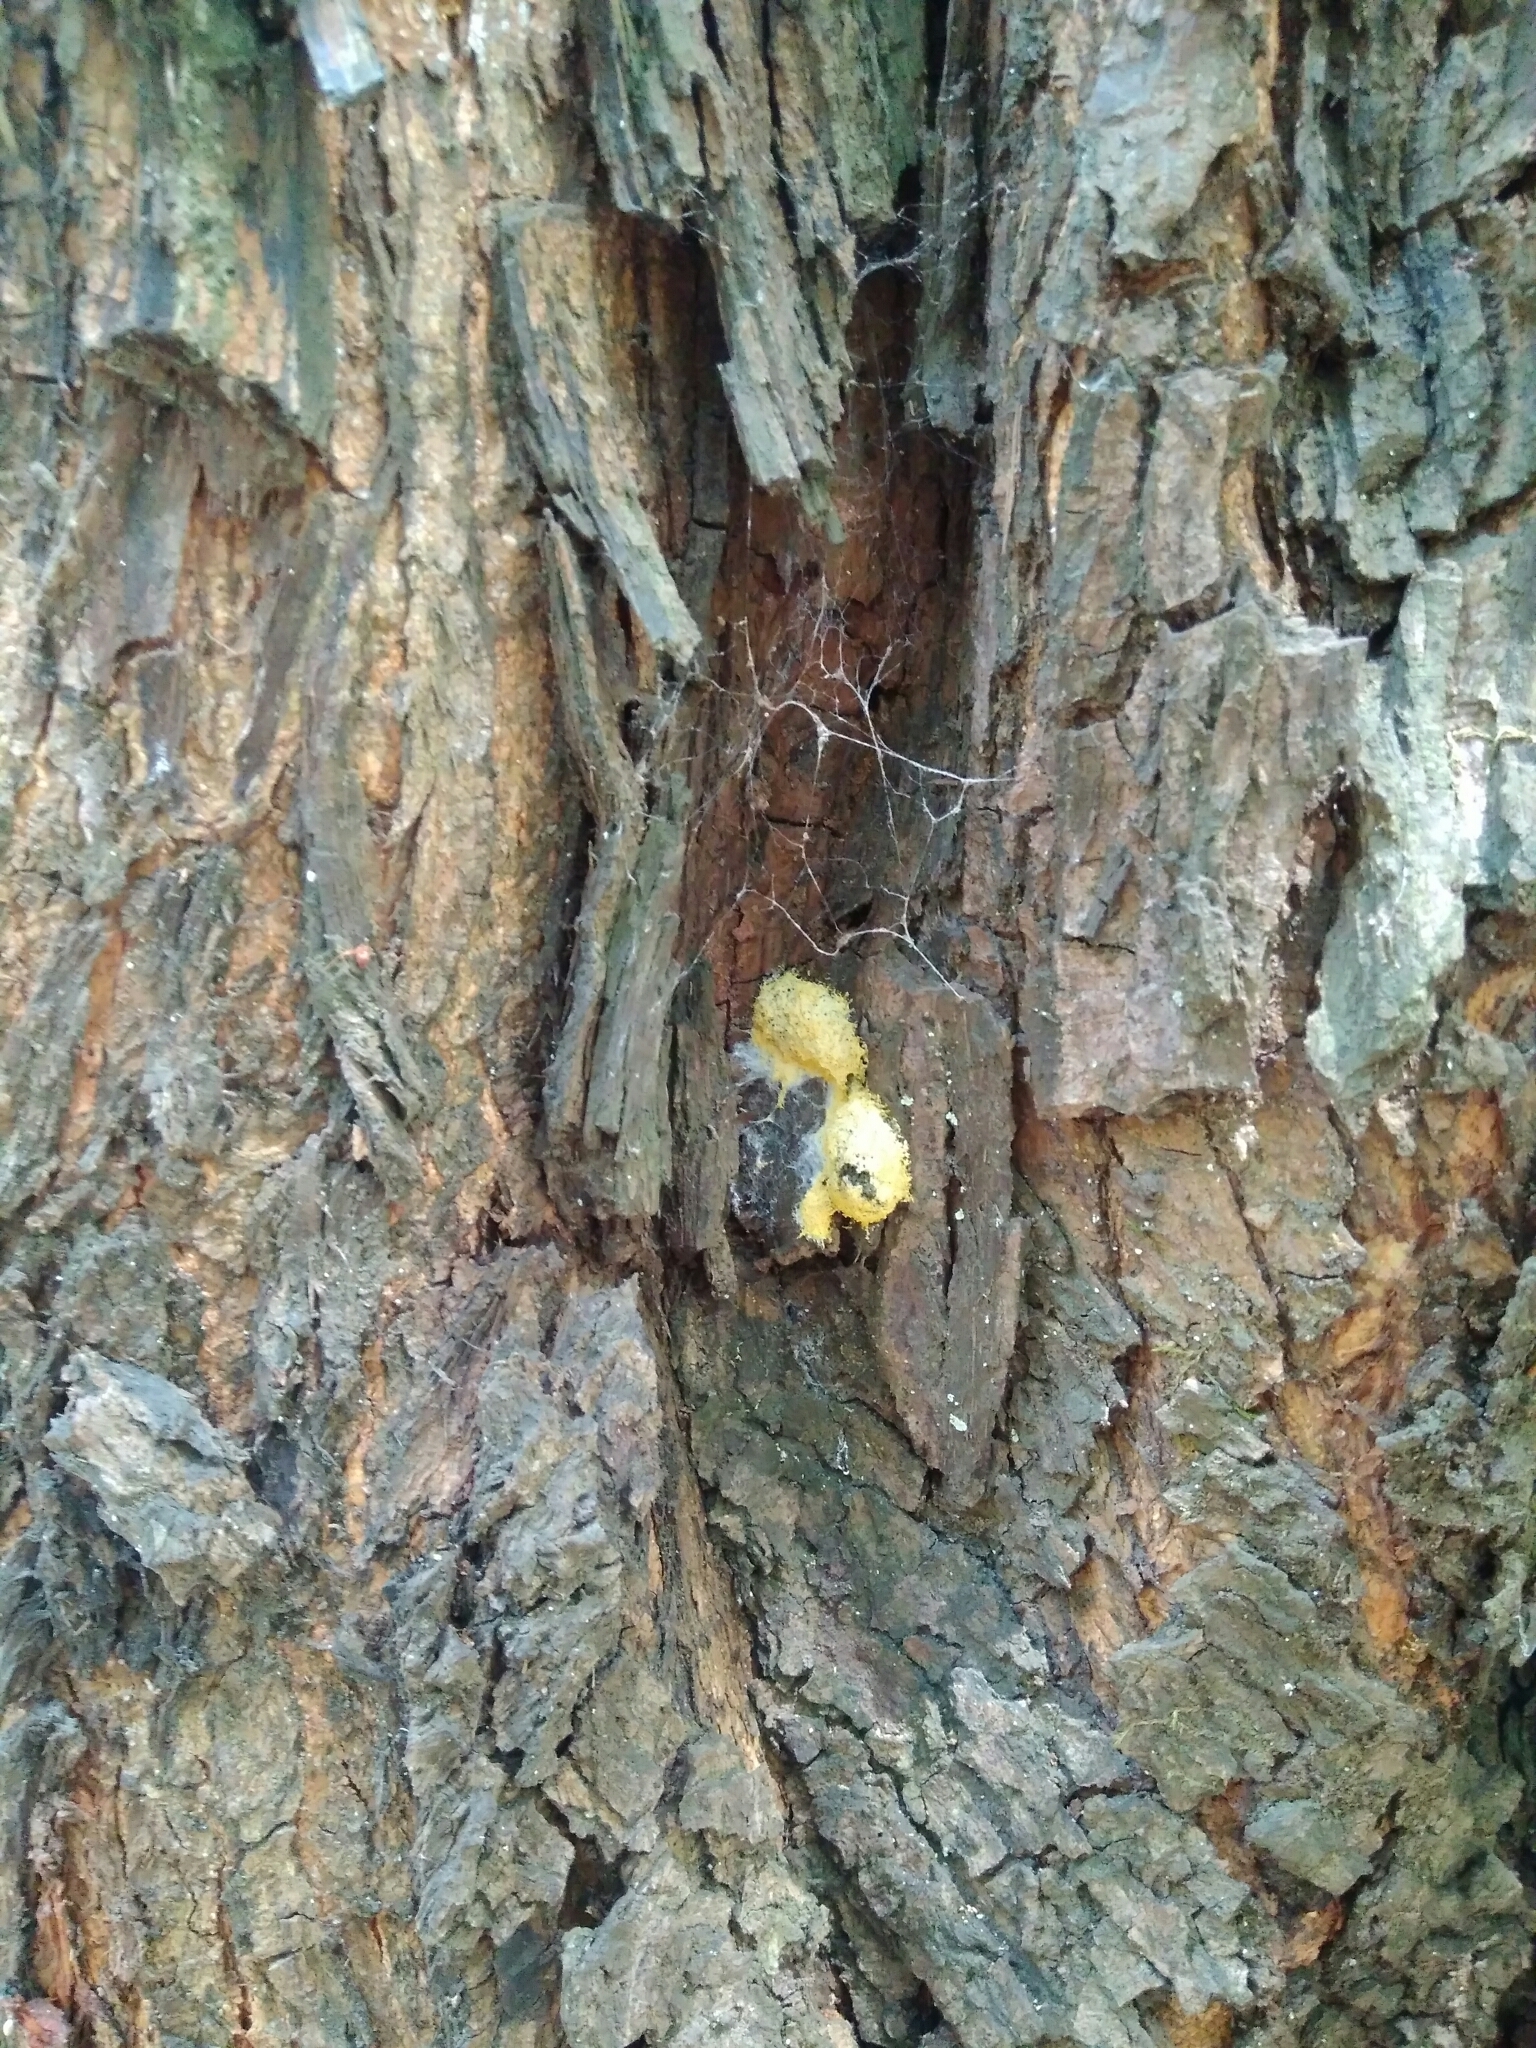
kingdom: Protozoa
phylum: Mycetozoa
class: Myxomycetes
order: Physarales
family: Physaraceae
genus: Fuligo
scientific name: Fuligo septica
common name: Dog vomit slime mold
